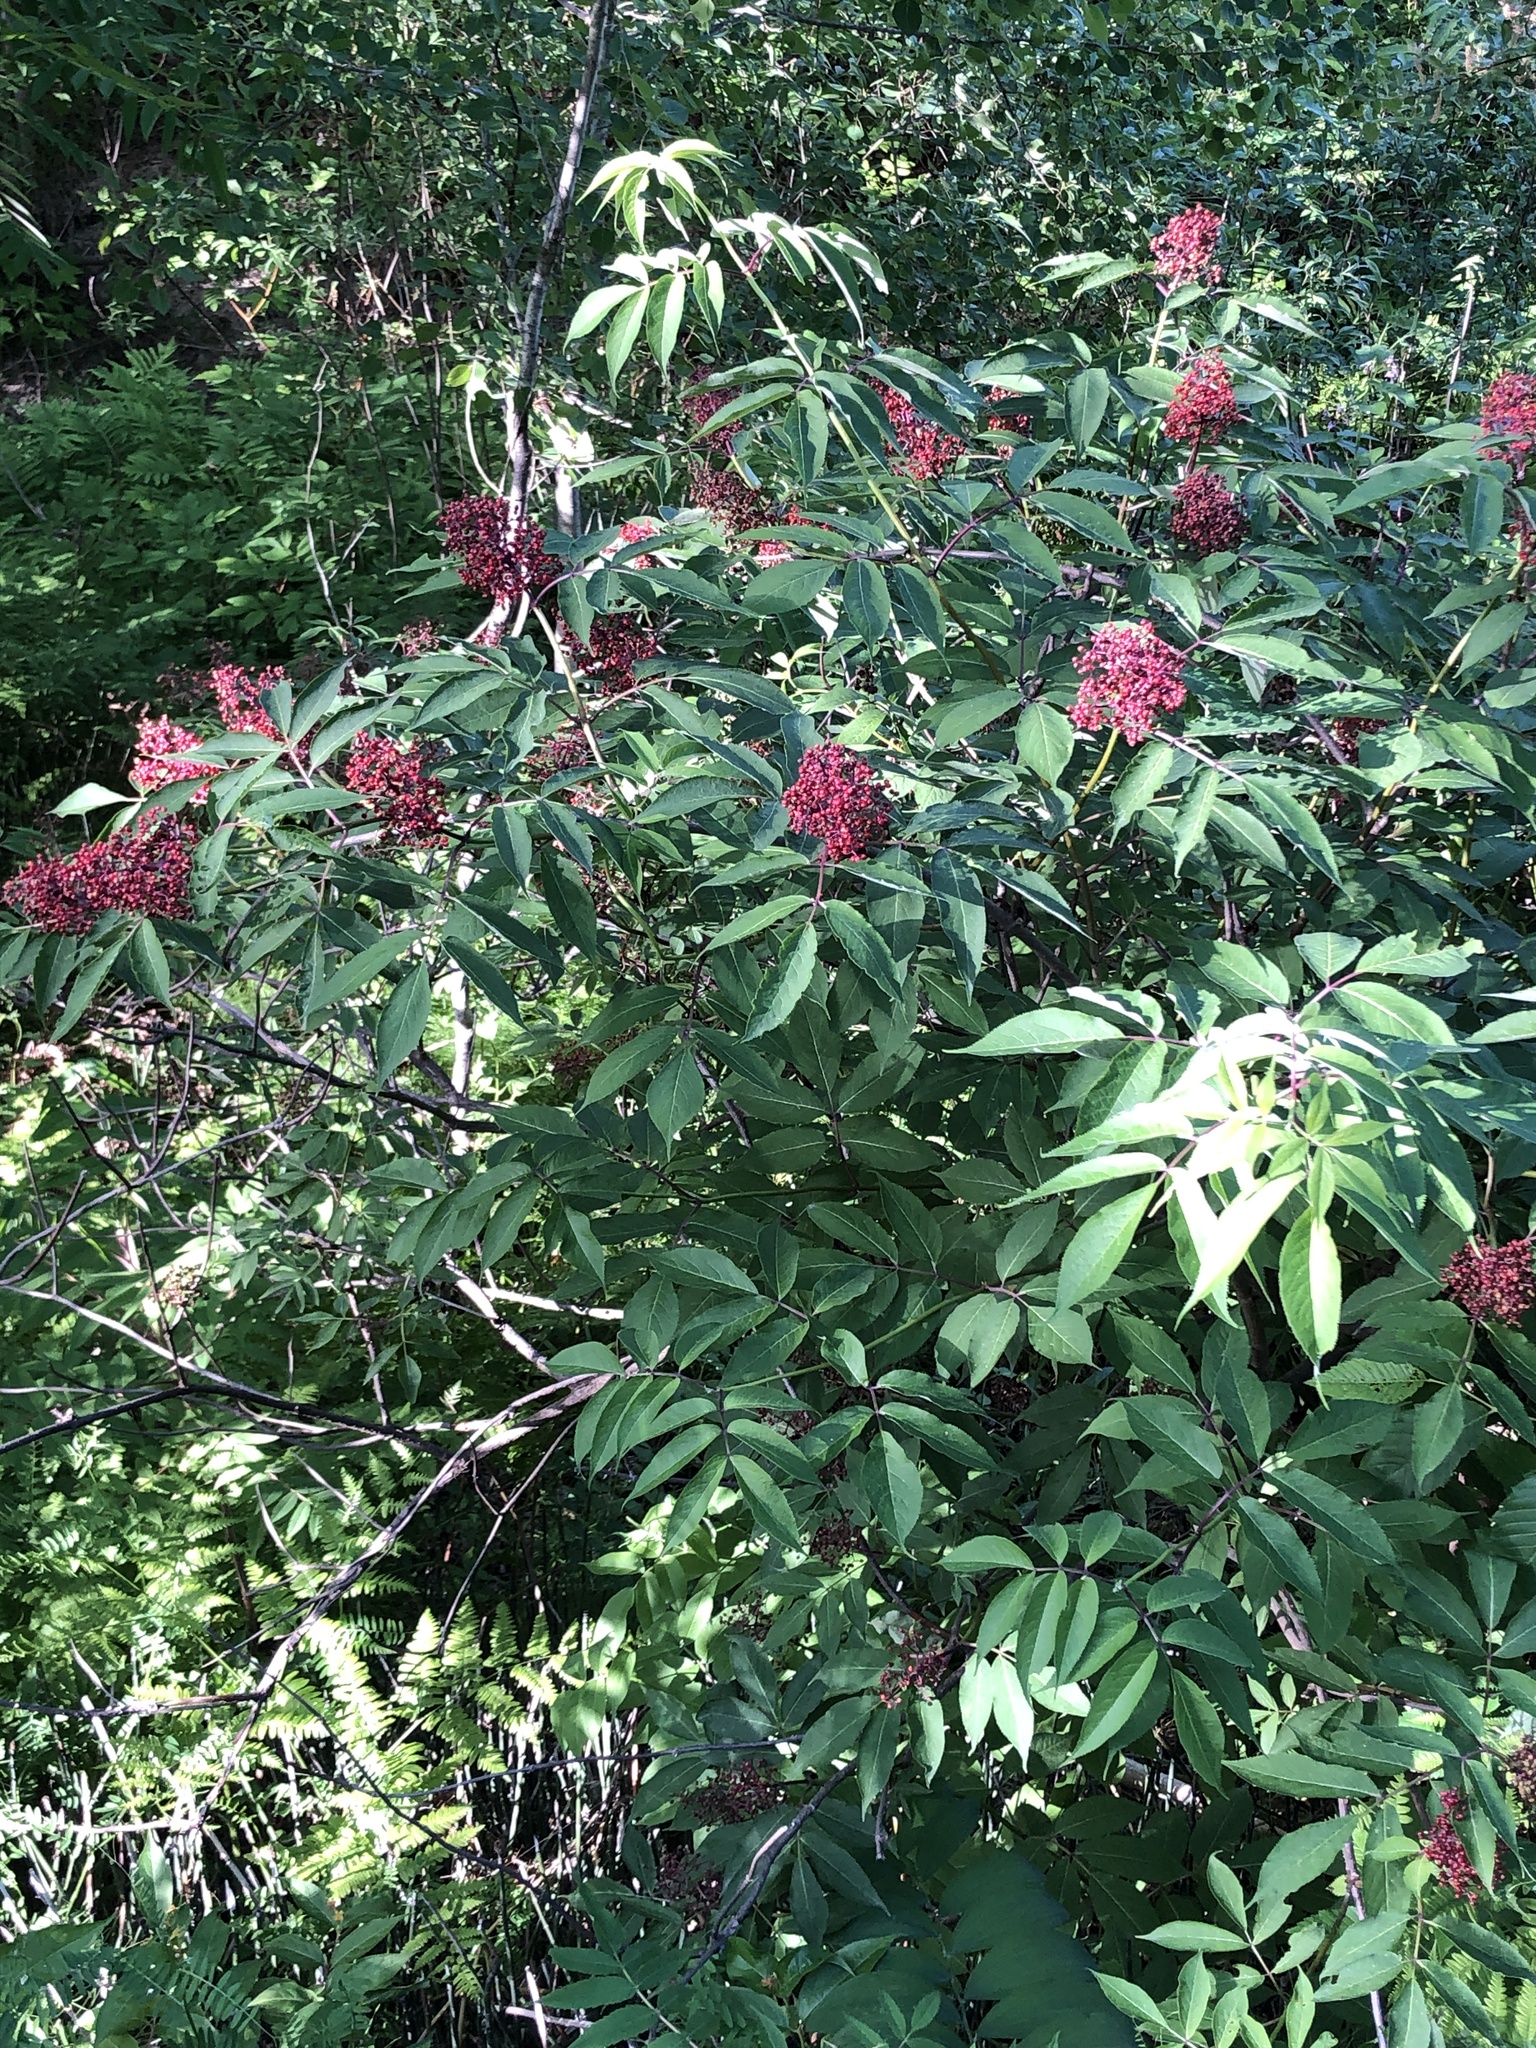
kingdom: Plantae
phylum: Tracheophyta
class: Magnoliopsida
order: Dipsacales
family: Viburnaceae
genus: Sambucus
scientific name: Sambucus racemosa
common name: Red-berried elder
